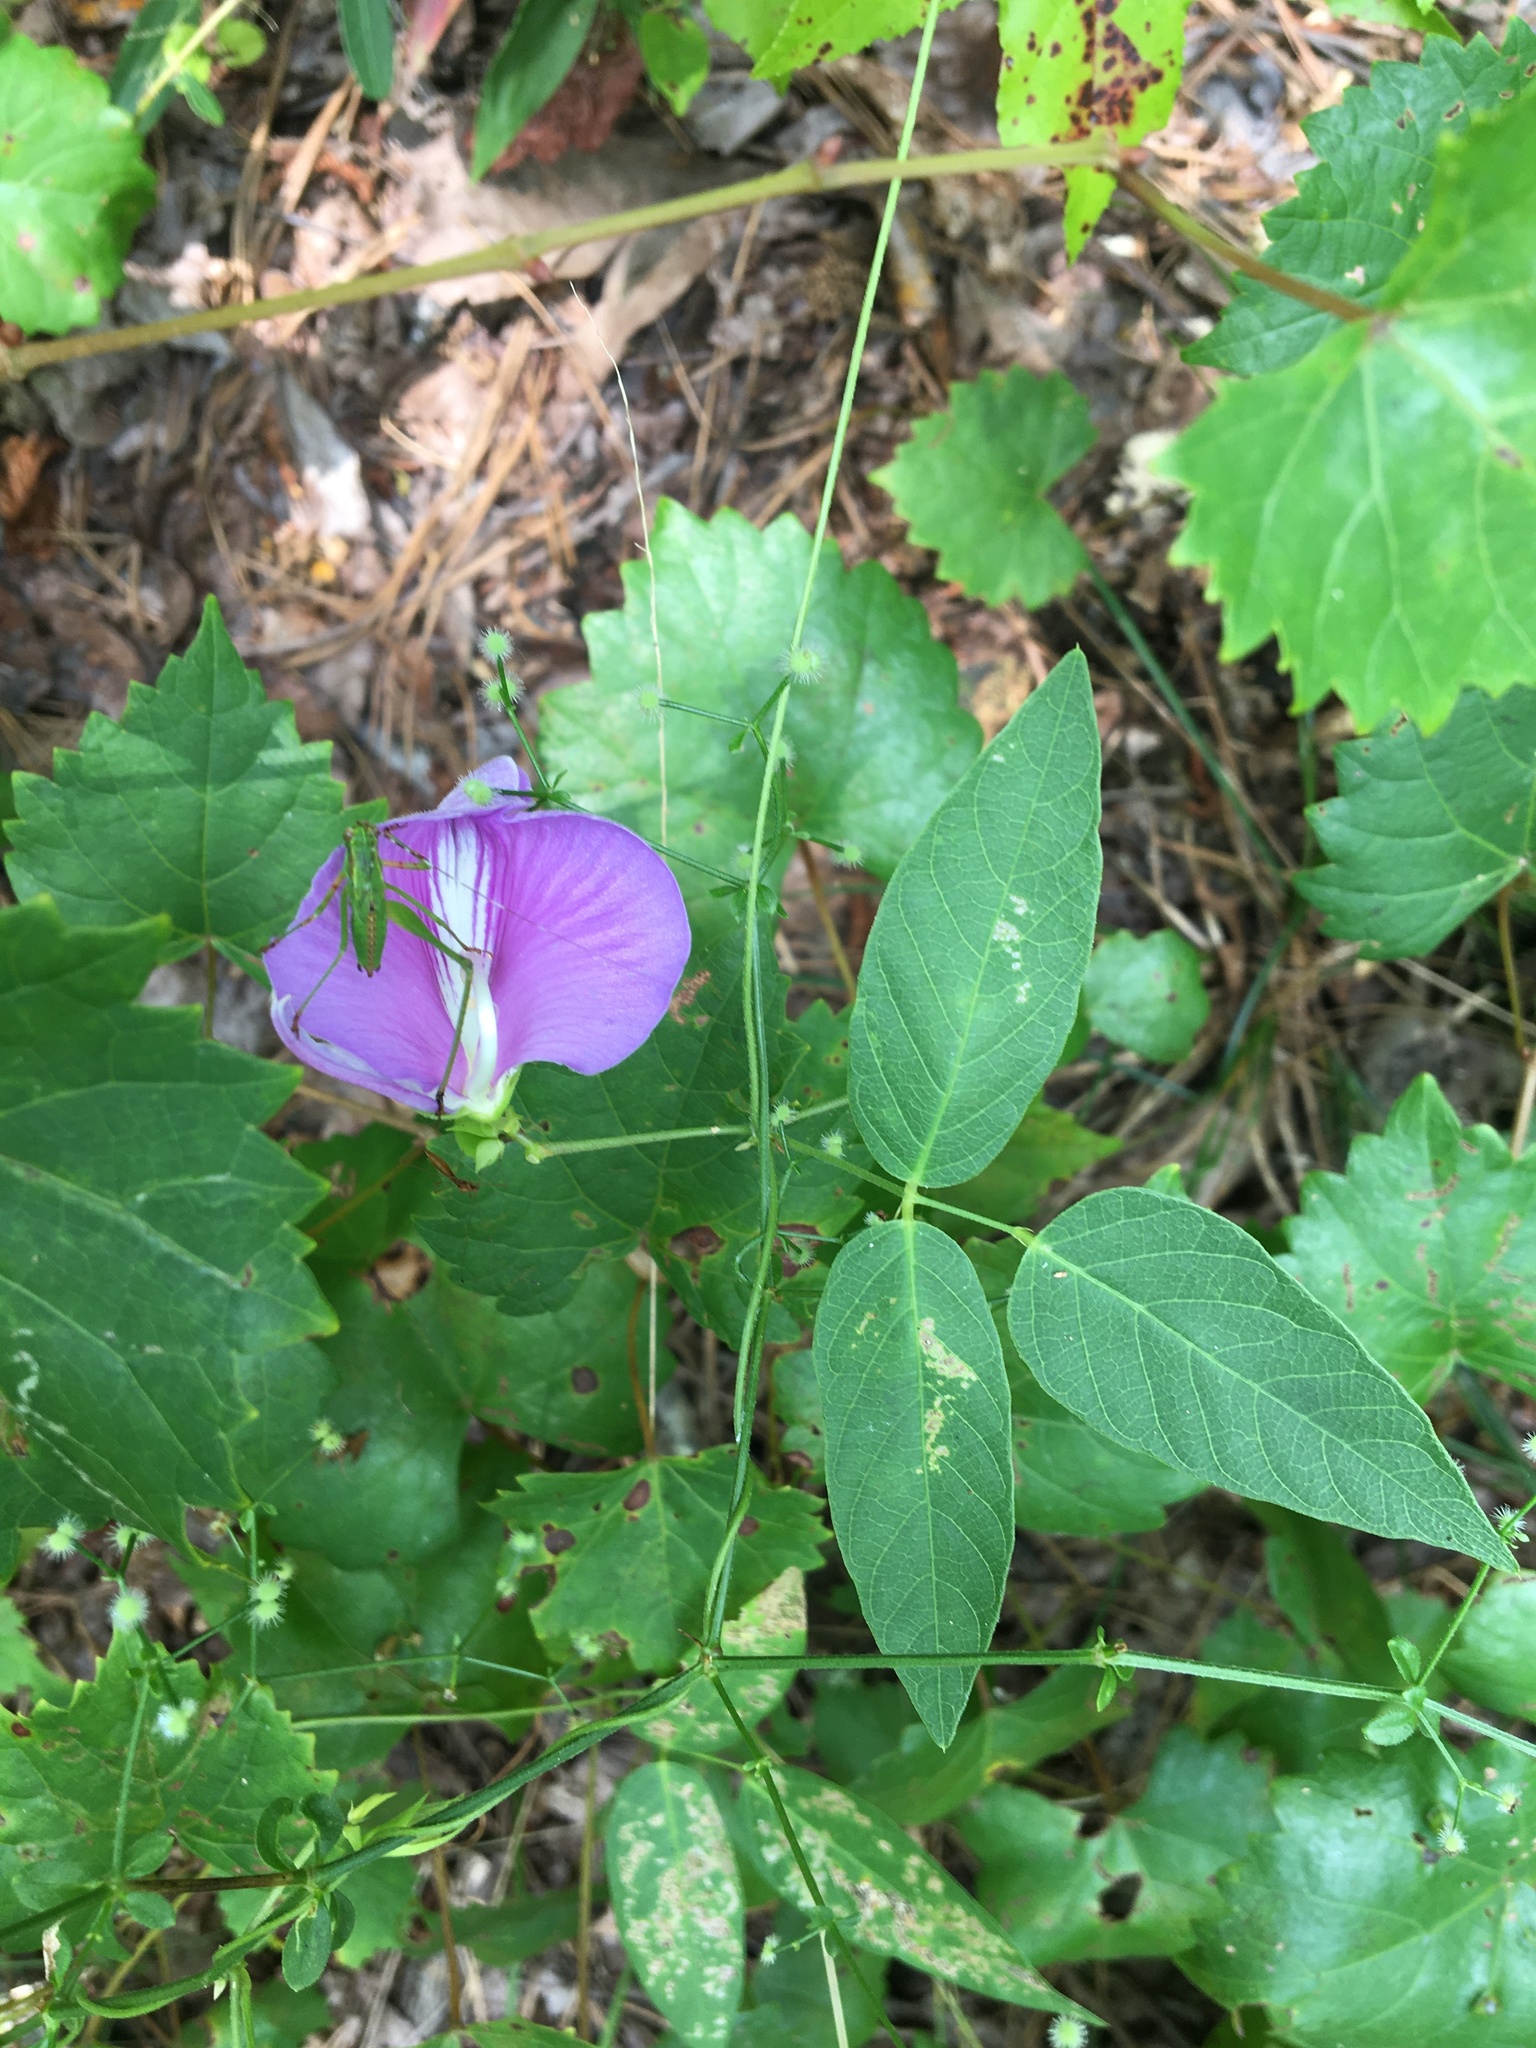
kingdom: Plantae
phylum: Tracheophyta
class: Magnoliopsida
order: Fabales
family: Fabaceae
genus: Centrosema
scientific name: Centrosema virginianum
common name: Butterfly-pea
